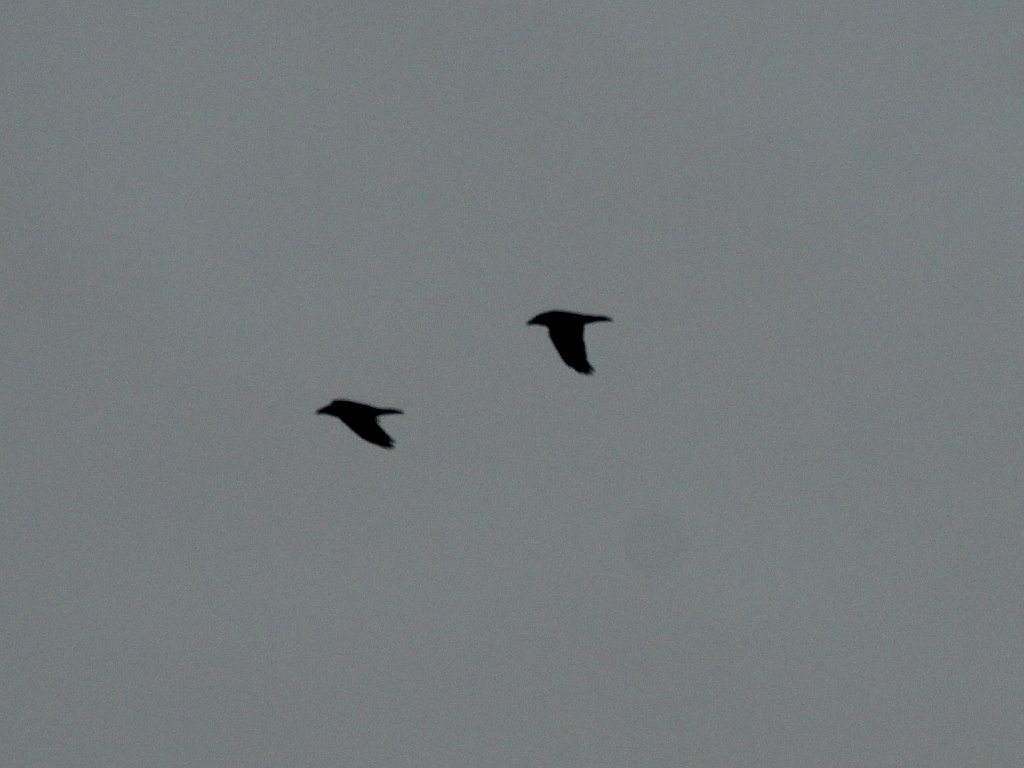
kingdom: Animalia
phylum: Chordata
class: Aves
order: Passeriformes
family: Corvidae
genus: Corvus
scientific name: Corvus corax
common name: Common raven
